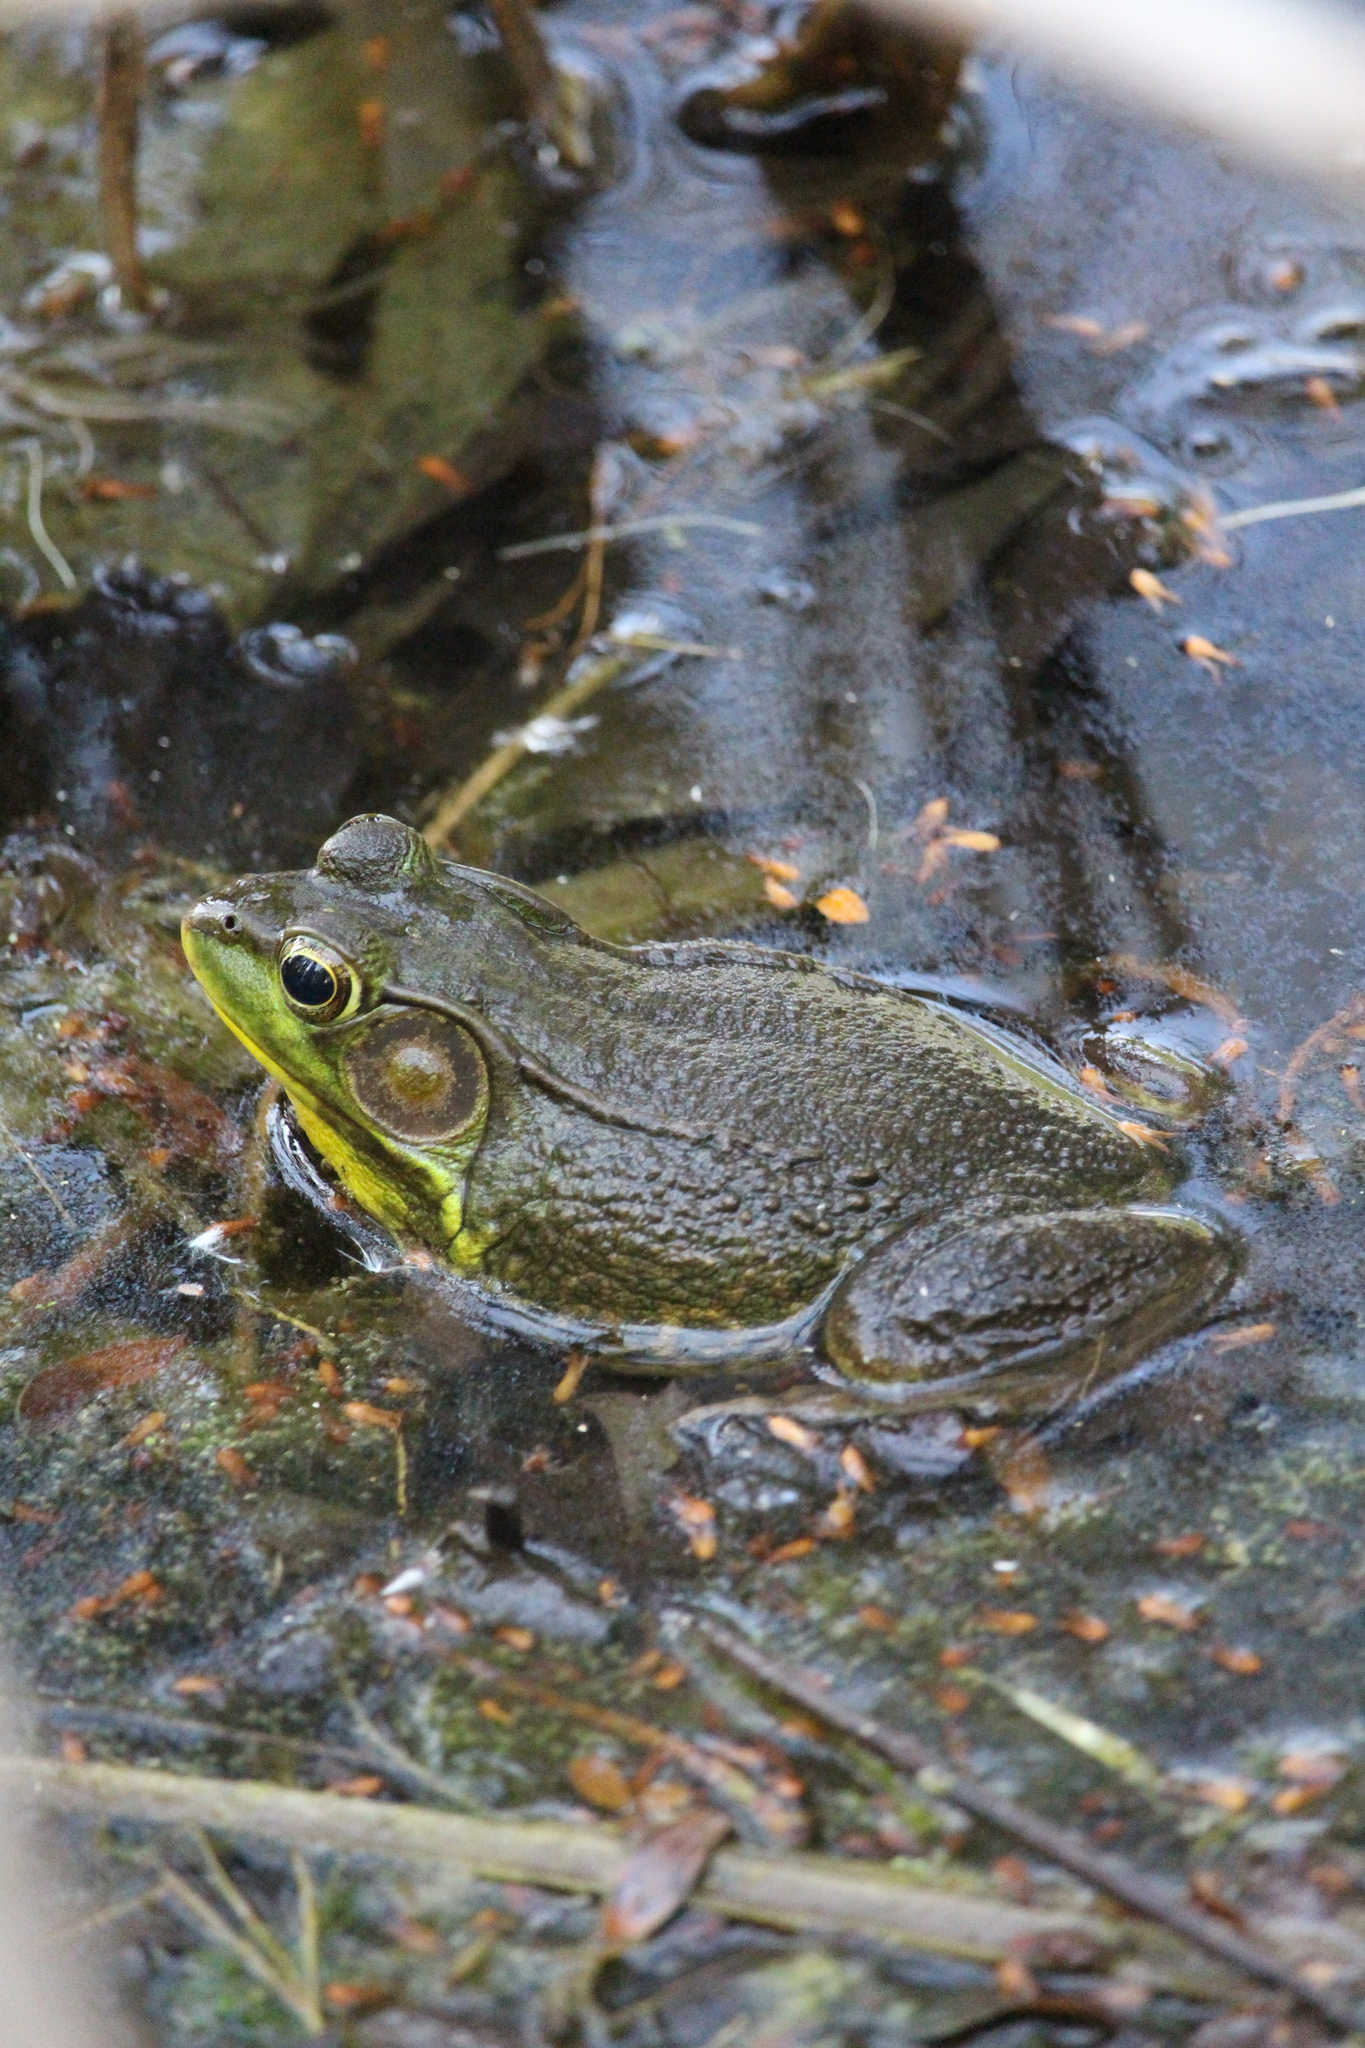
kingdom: Animalia
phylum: Chordata
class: Amphibia
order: Anura
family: Ranidae
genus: Lithobates
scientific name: Lithobates clamitans
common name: Green frog
